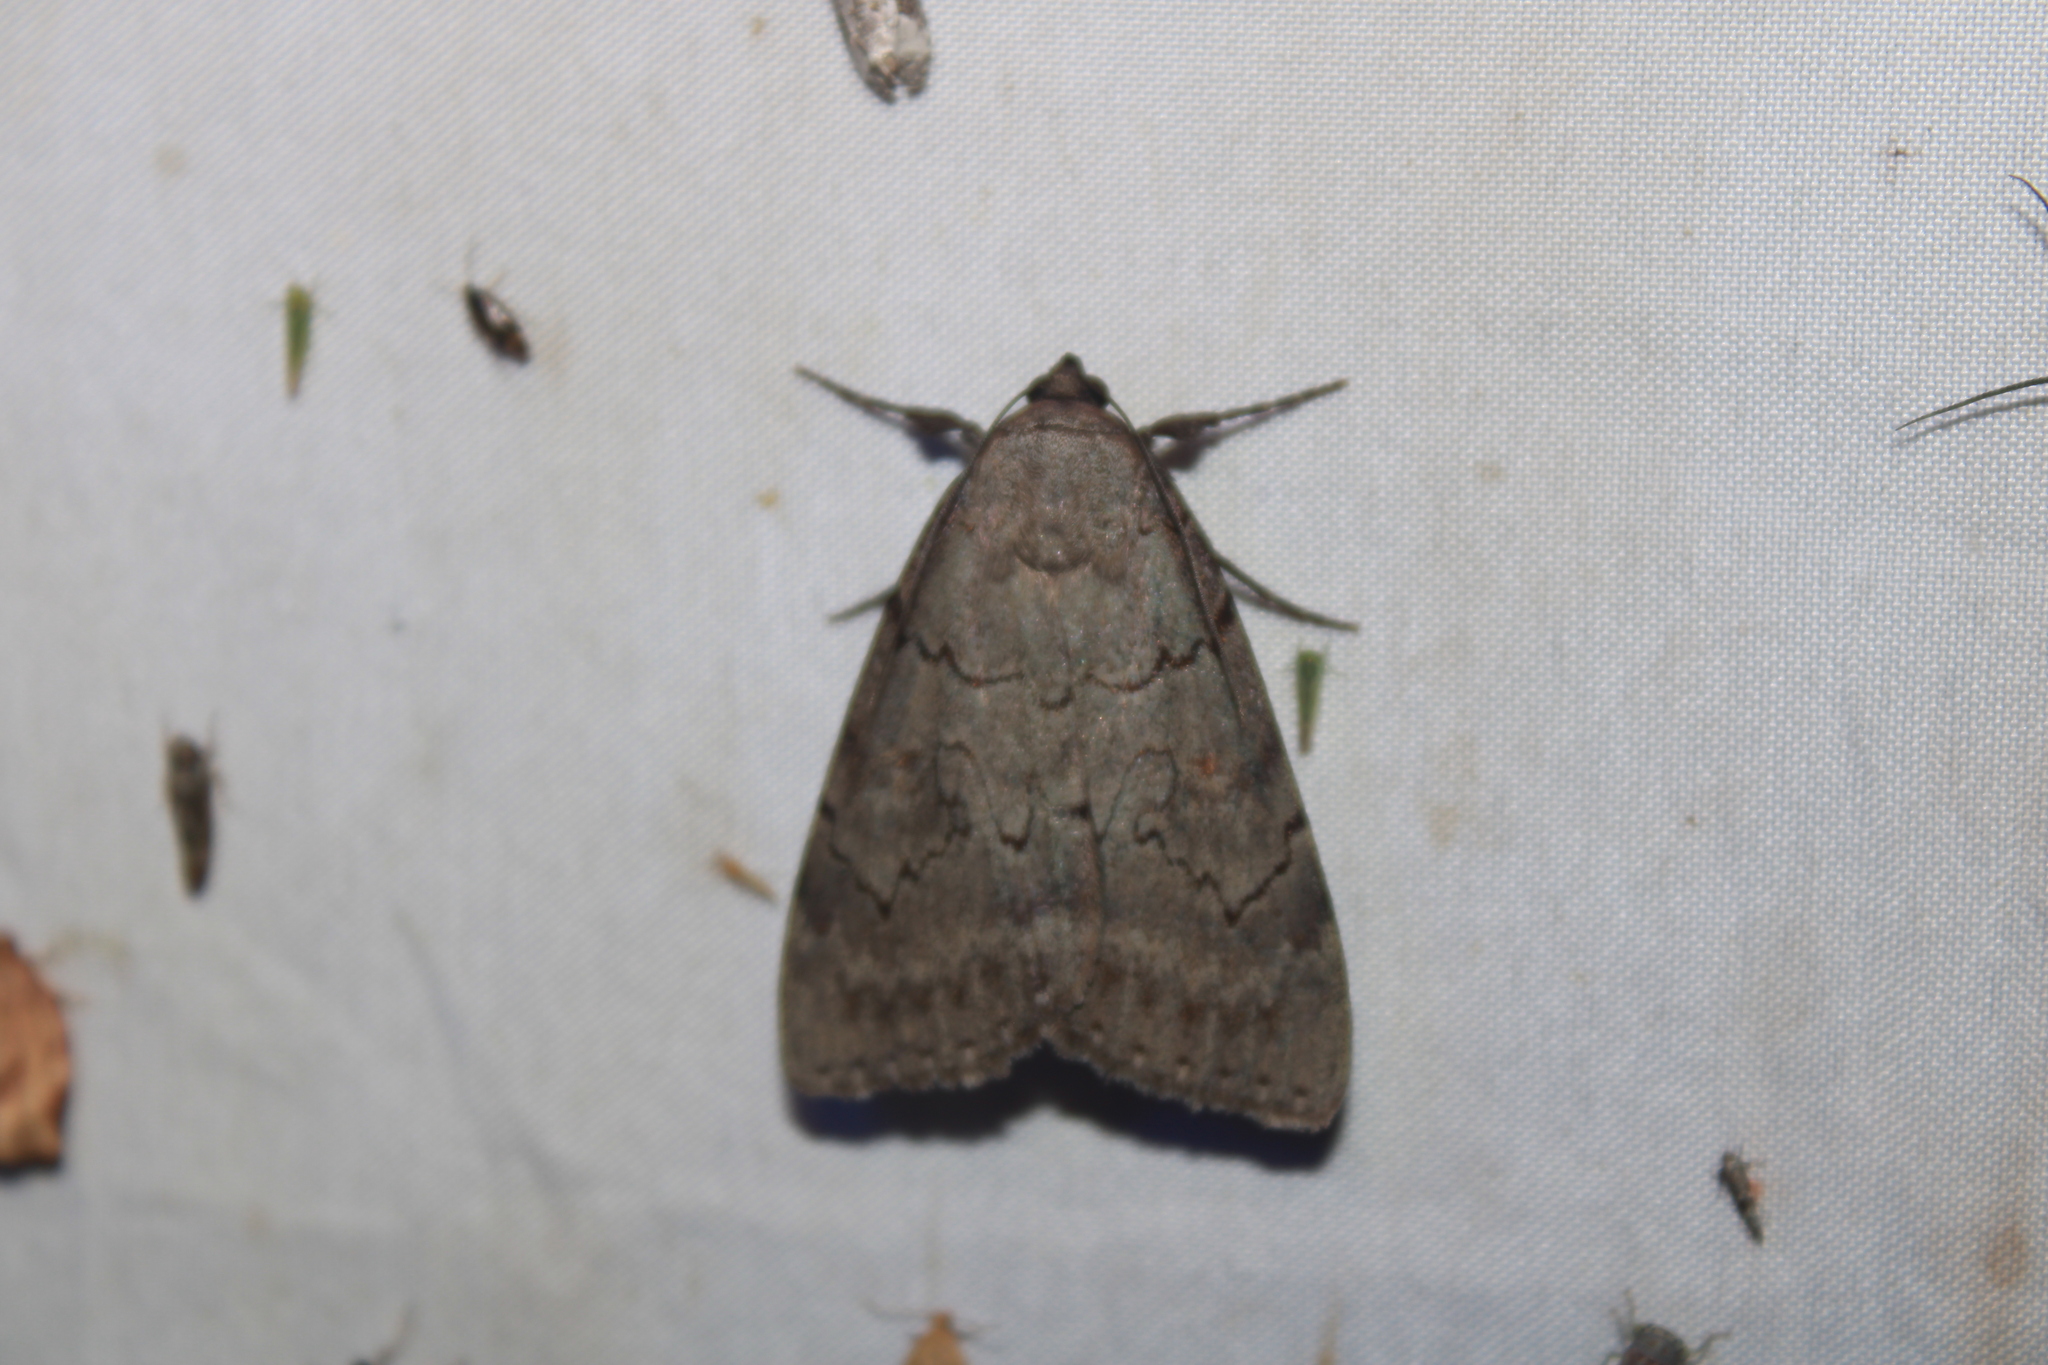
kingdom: Animalia
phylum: Arthropoda
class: Insecta
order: Lepidoptera
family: Erebidae
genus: Catocala
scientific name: Catocala serena
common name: Serene underwing
